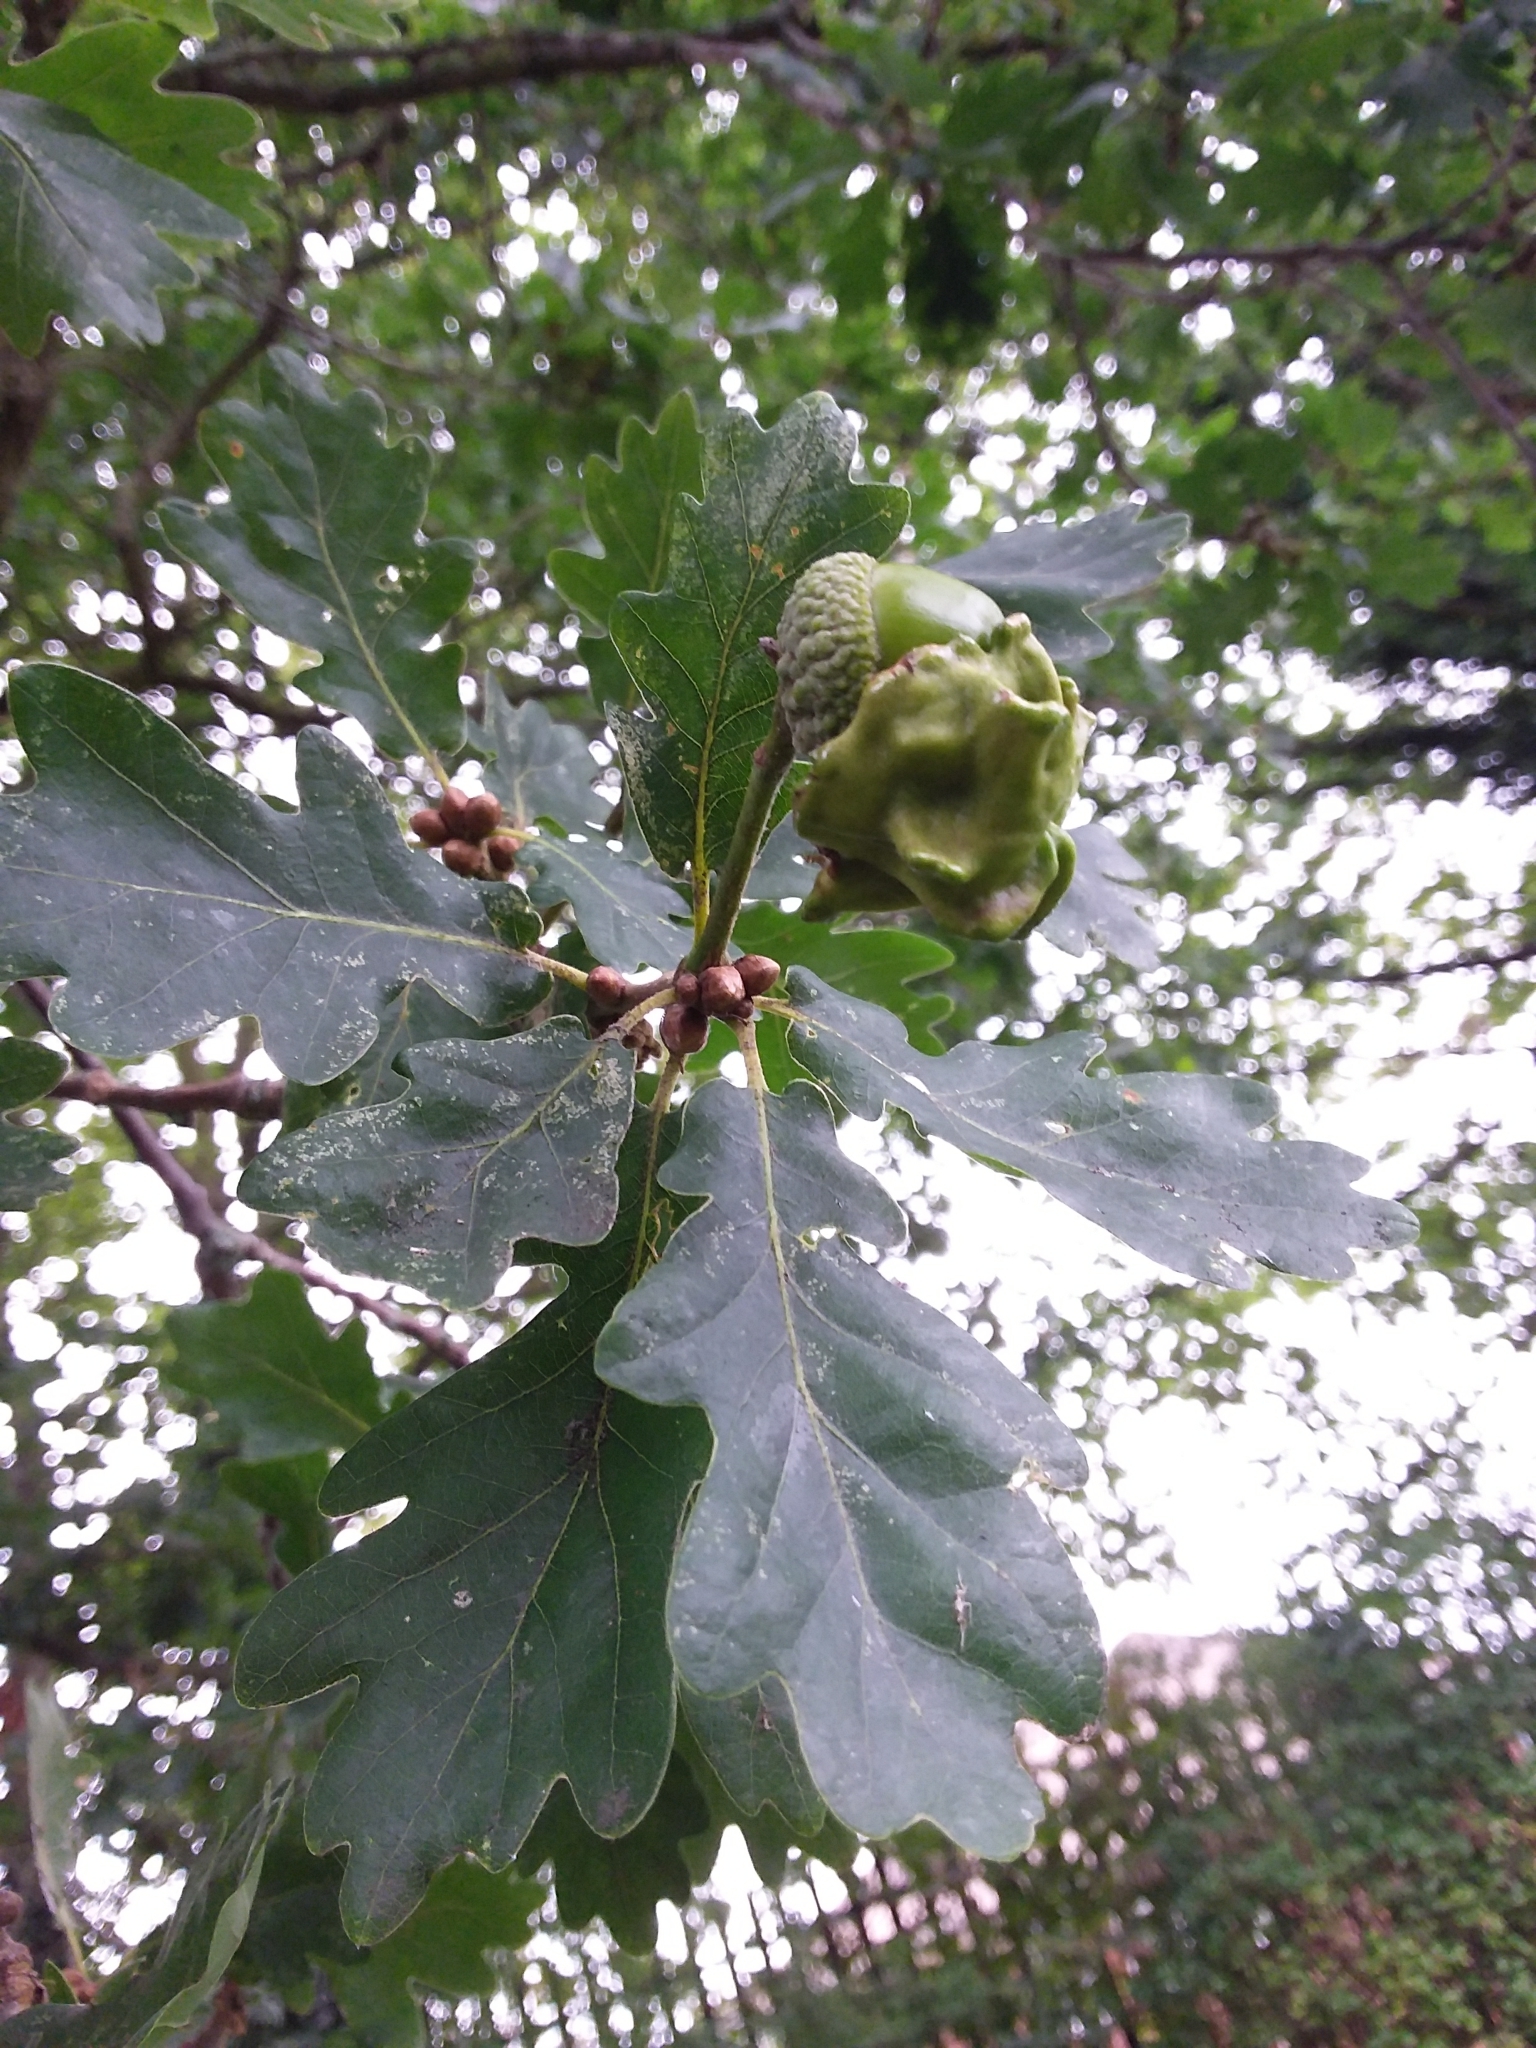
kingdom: Animalia
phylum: Arthropoda
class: Insecta
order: Hymenoptera
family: Cynipidae
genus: Andricus
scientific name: Andricus quercuscalicis
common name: Knopper gall
